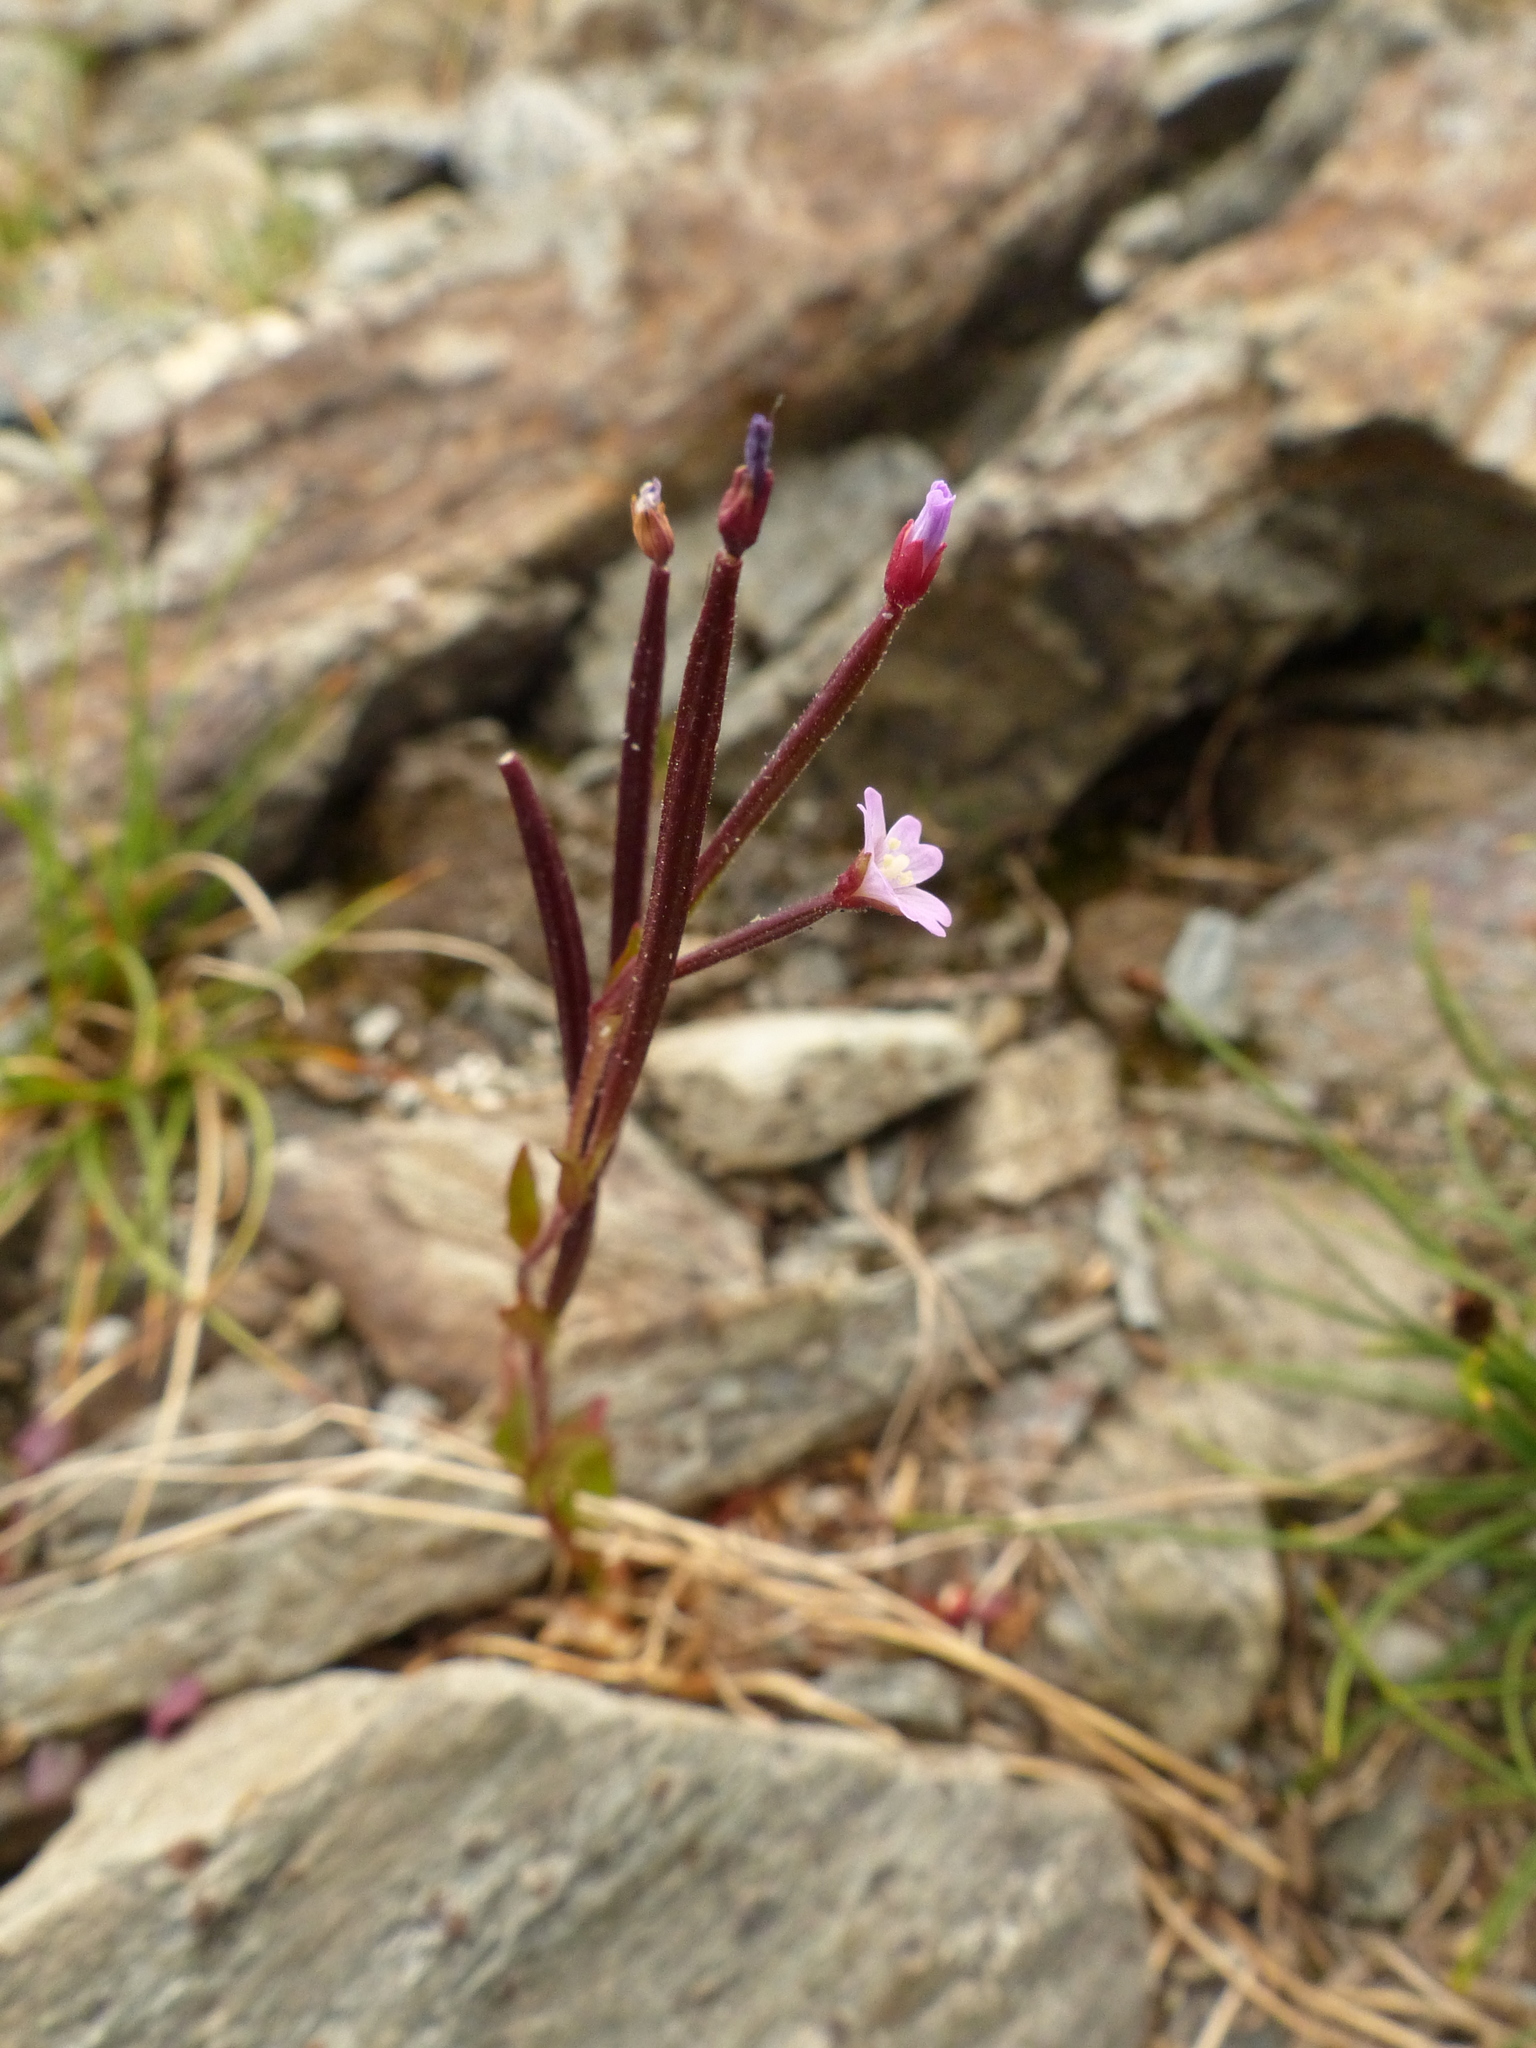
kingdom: Plantae
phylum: Tracheophyta
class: Magnoliopsida
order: Myrtales
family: Onagraceae
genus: Epilobium
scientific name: Epilobium anagallidifolium
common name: Alpine willowherb
